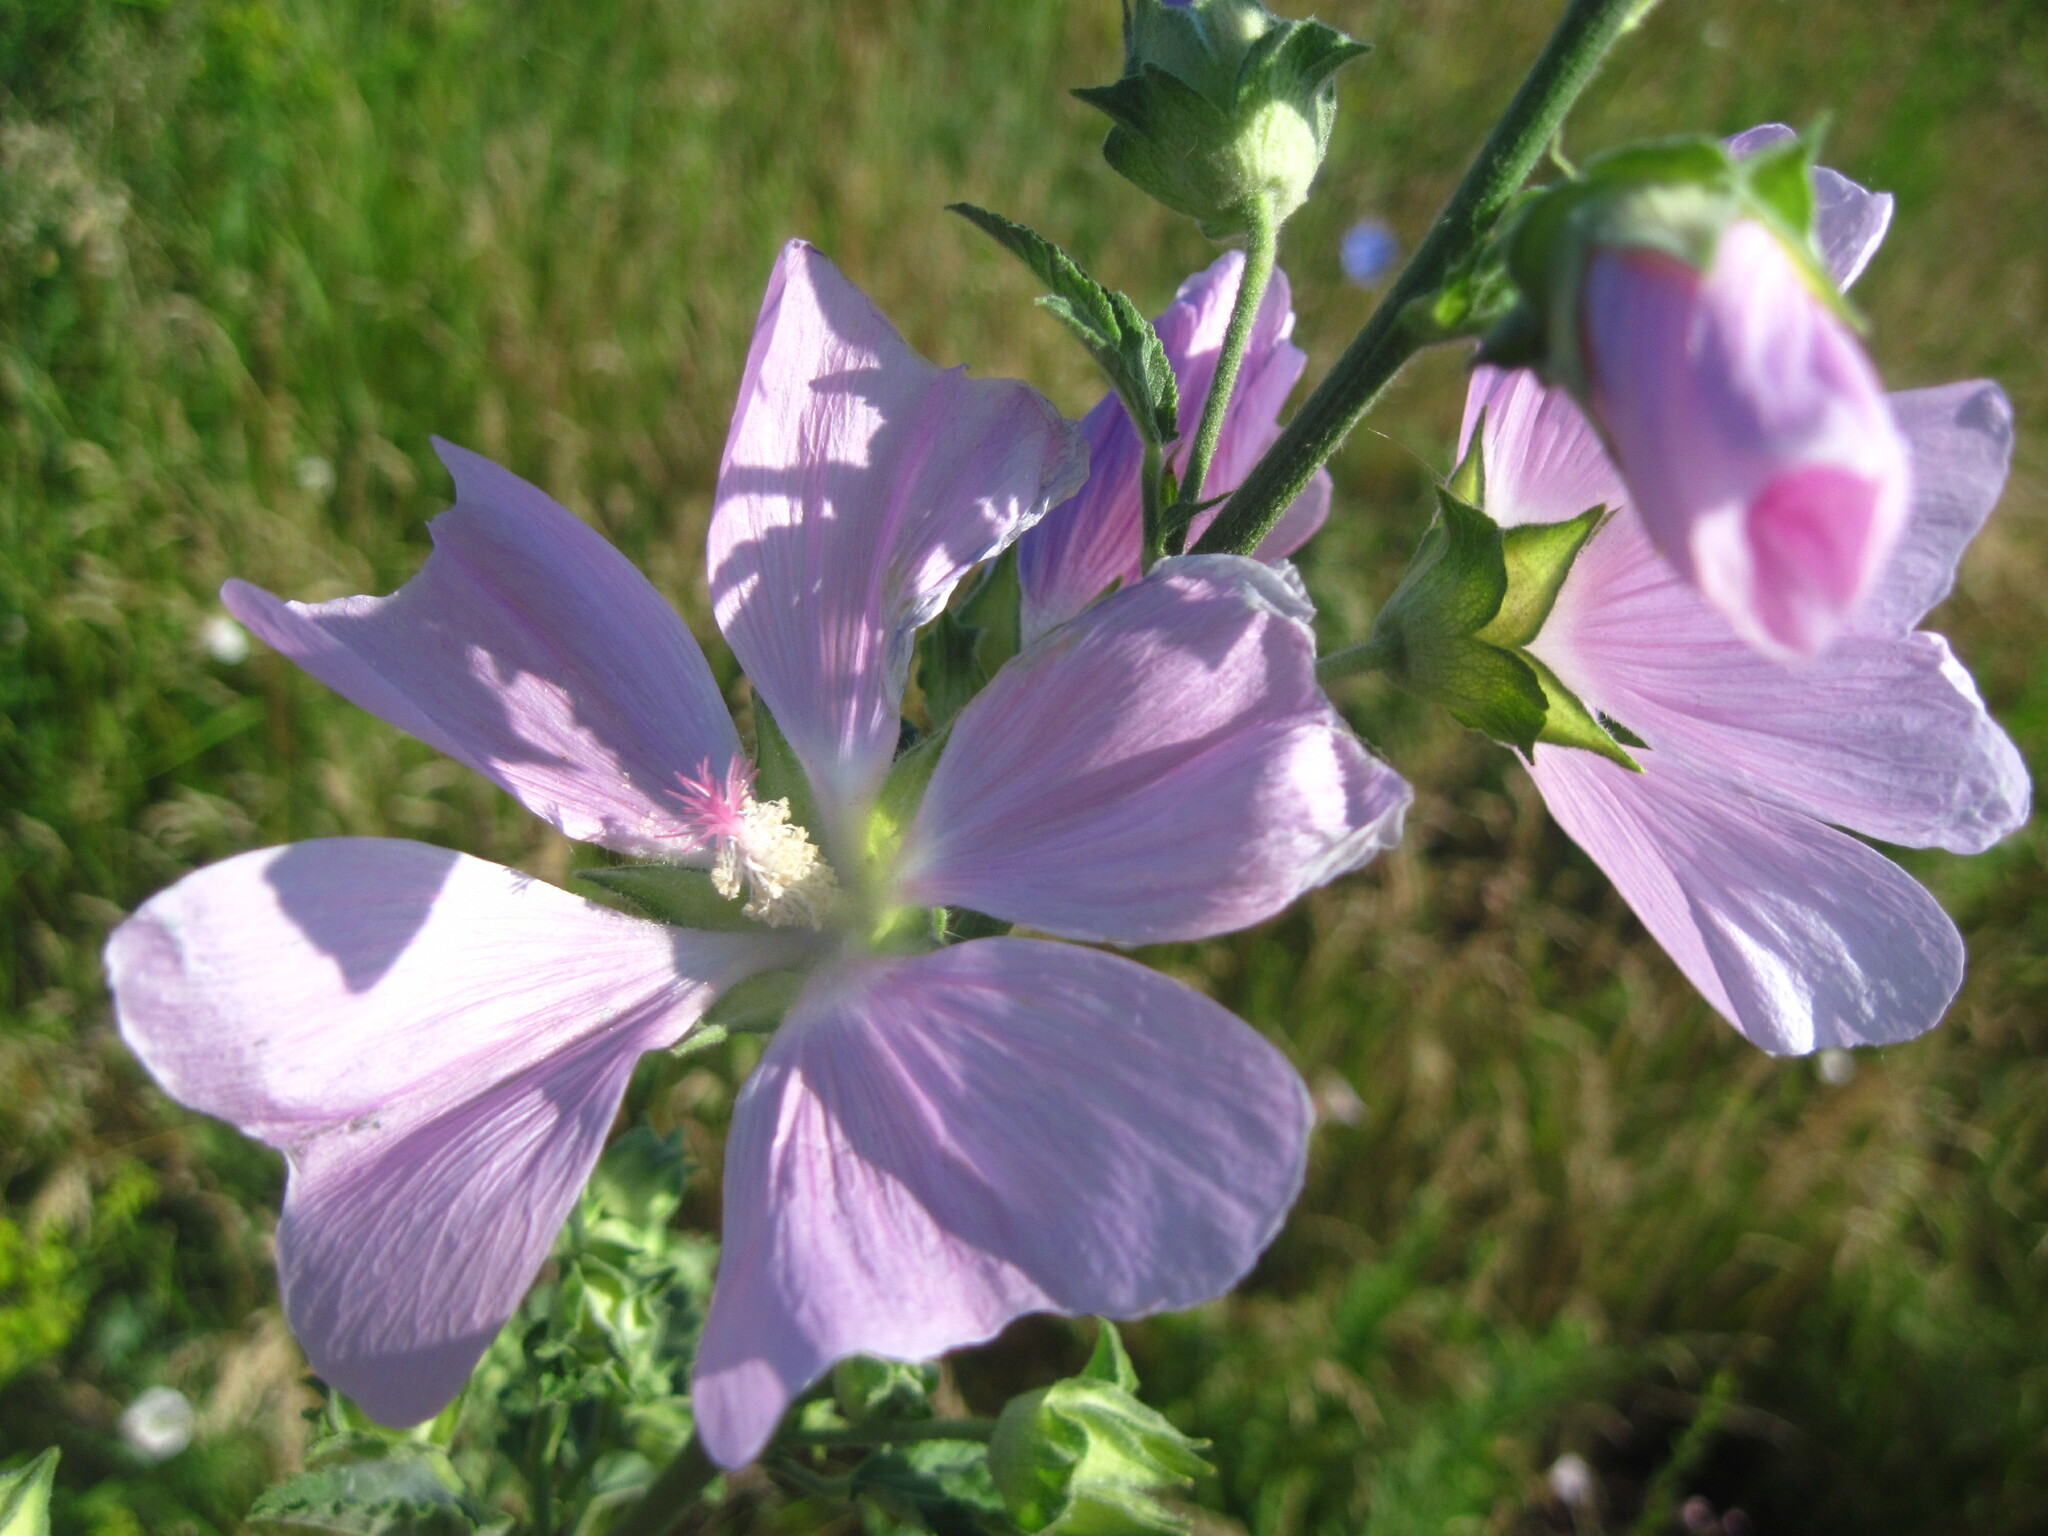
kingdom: Plantae
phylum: Tracheophyta
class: Magnoliopsida
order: Malvales
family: Malvaceae
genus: Malva
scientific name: Malva thuringiaca
